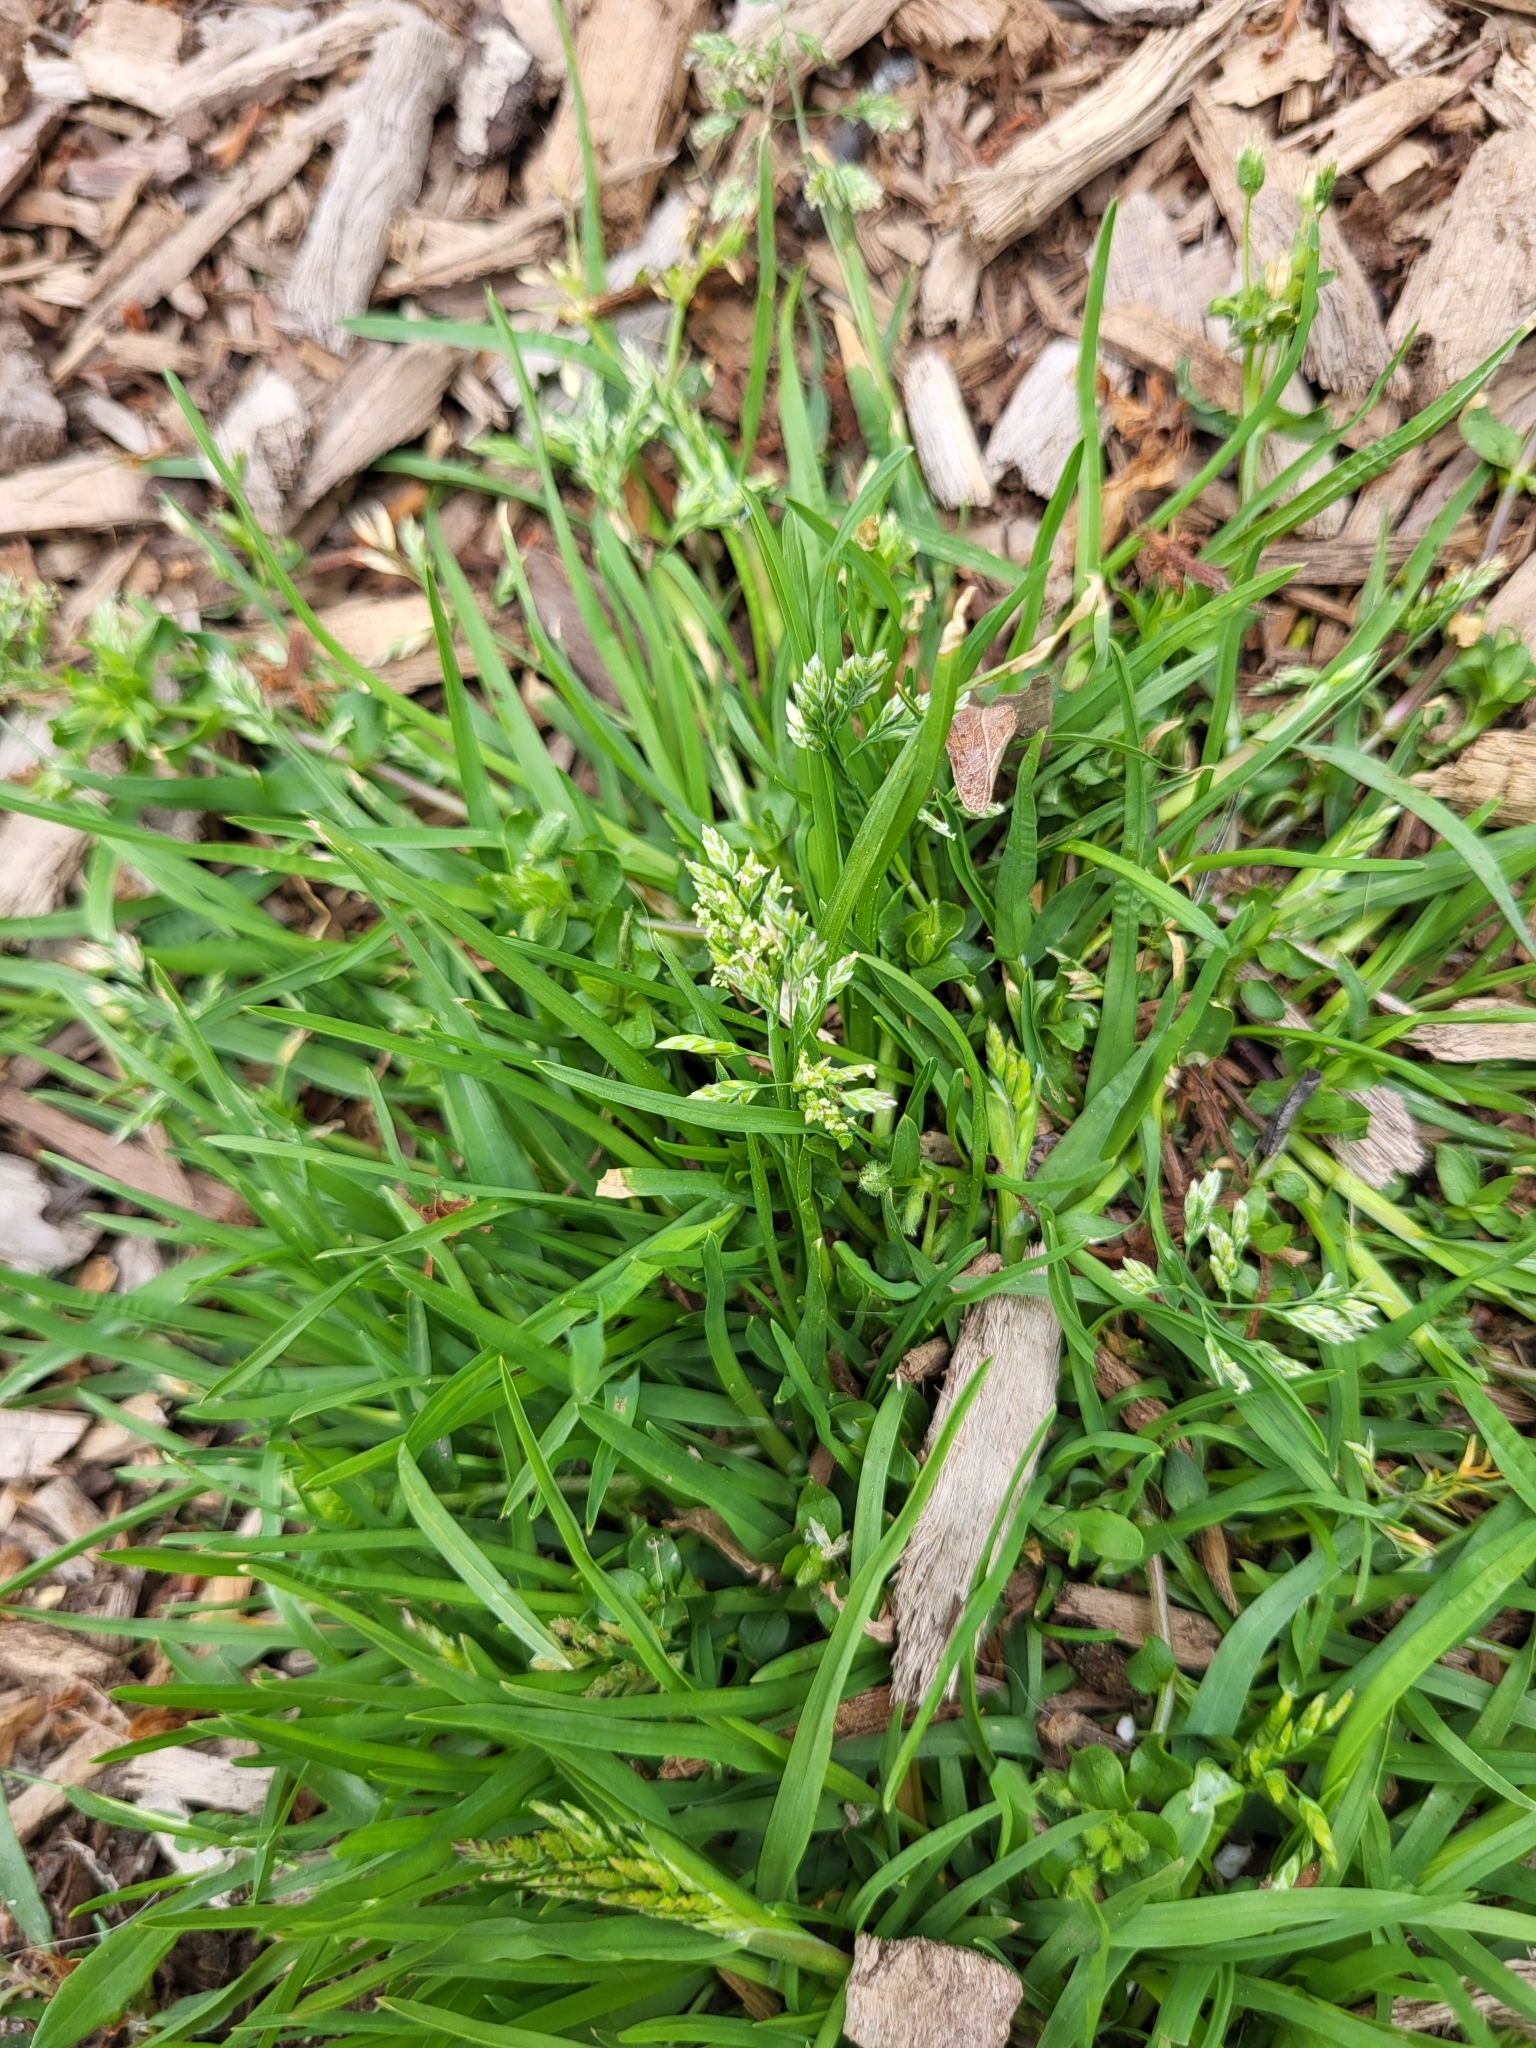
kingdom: Plantae
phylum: Tracheophyta
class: Liliopsida
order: Poales
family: Poaceae
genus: Poa
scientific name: Poa annua
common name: Annual bluegrass
